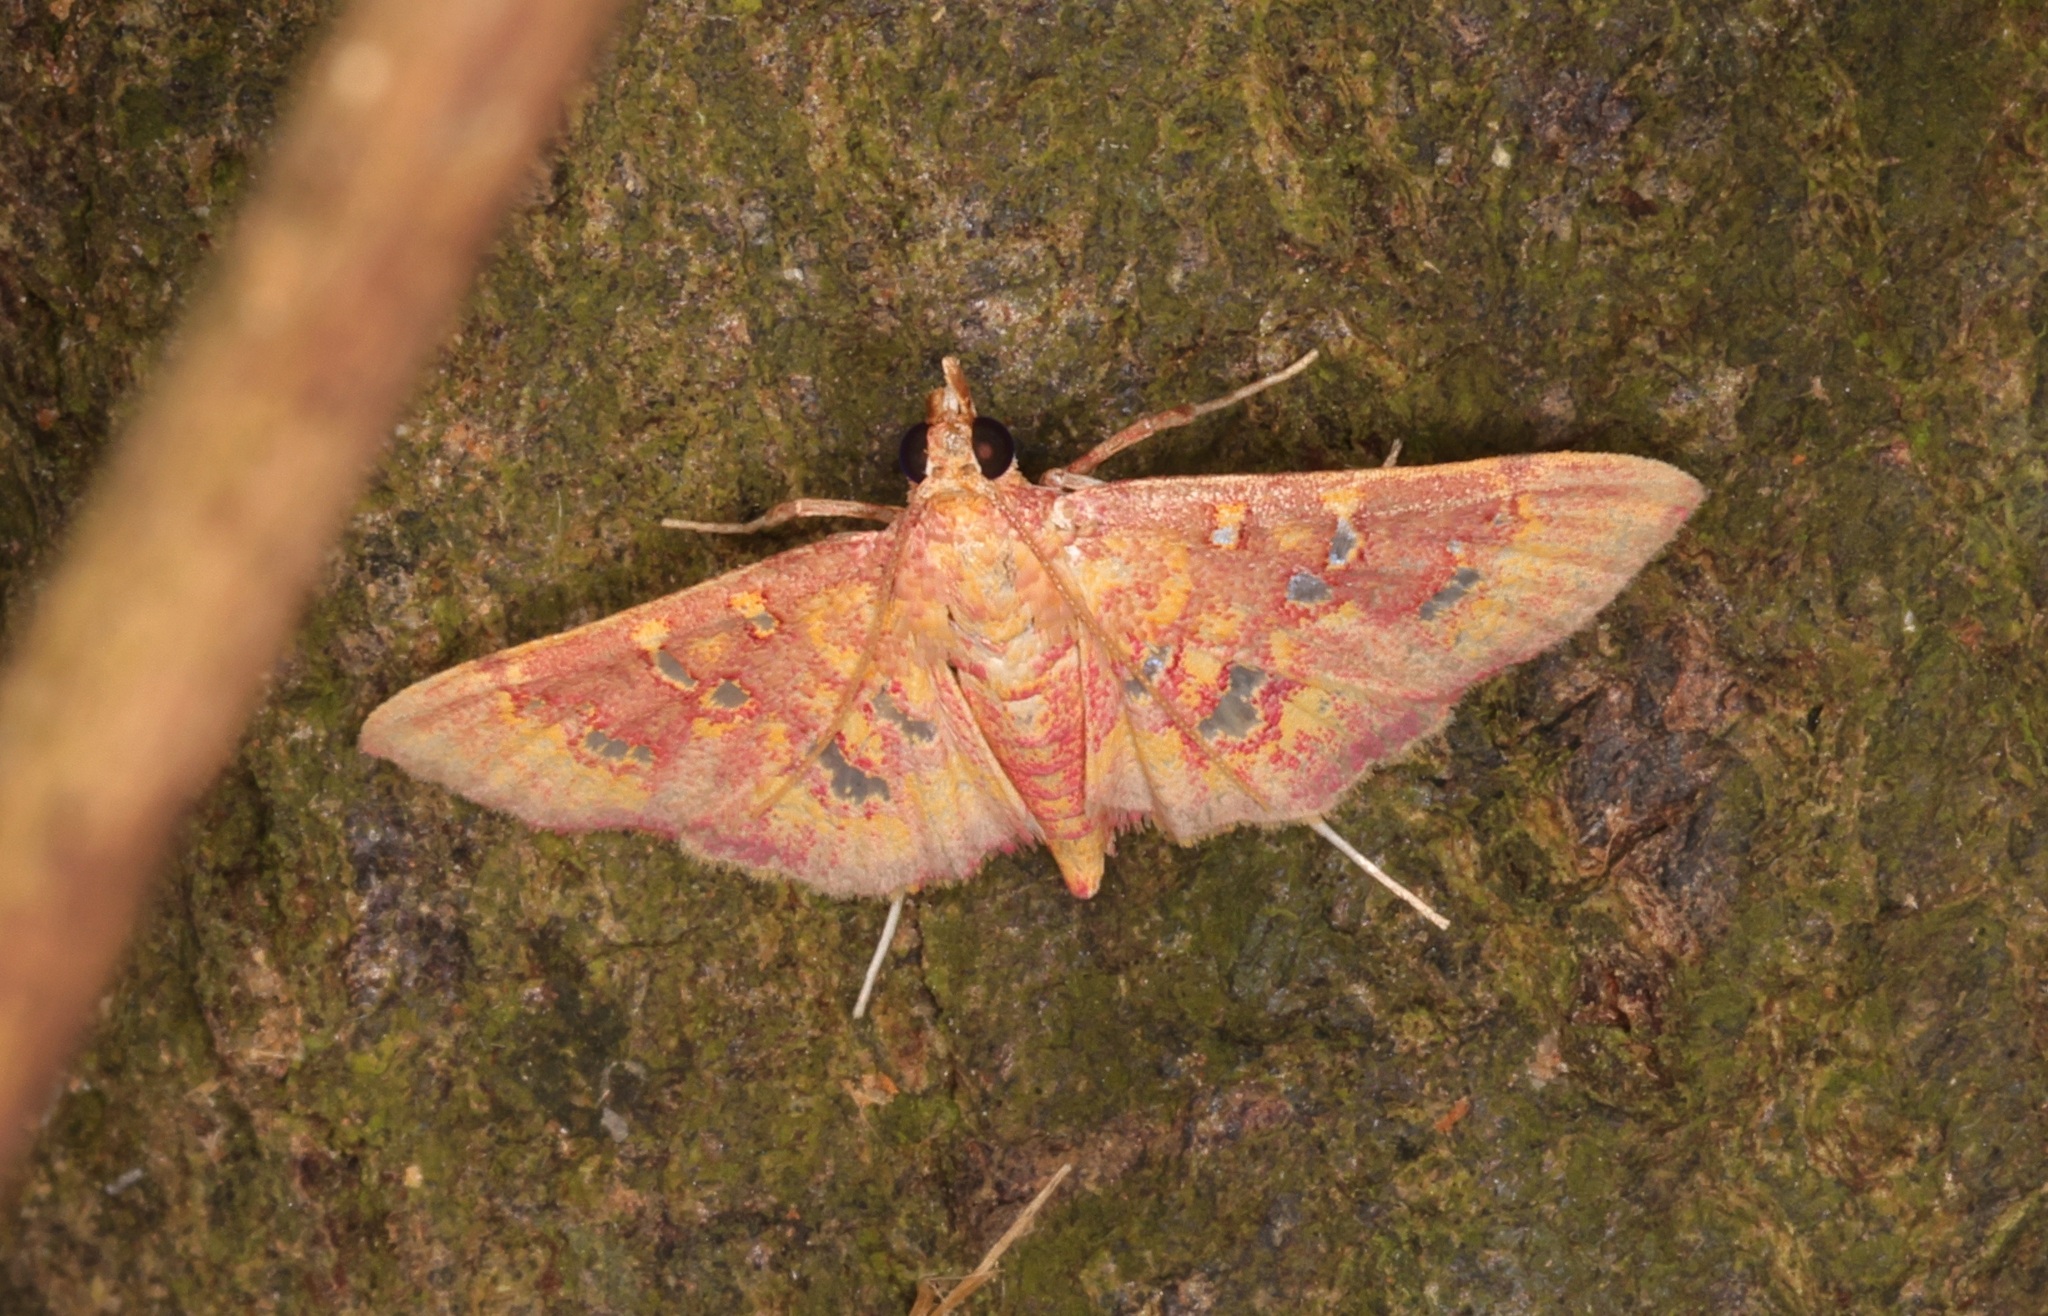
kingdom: Animalia
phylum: Arthropoda
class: Insecta
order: Lepidoptera
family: Crambidae
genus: Ischnurges
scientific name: Ischnurges gratiosalis
